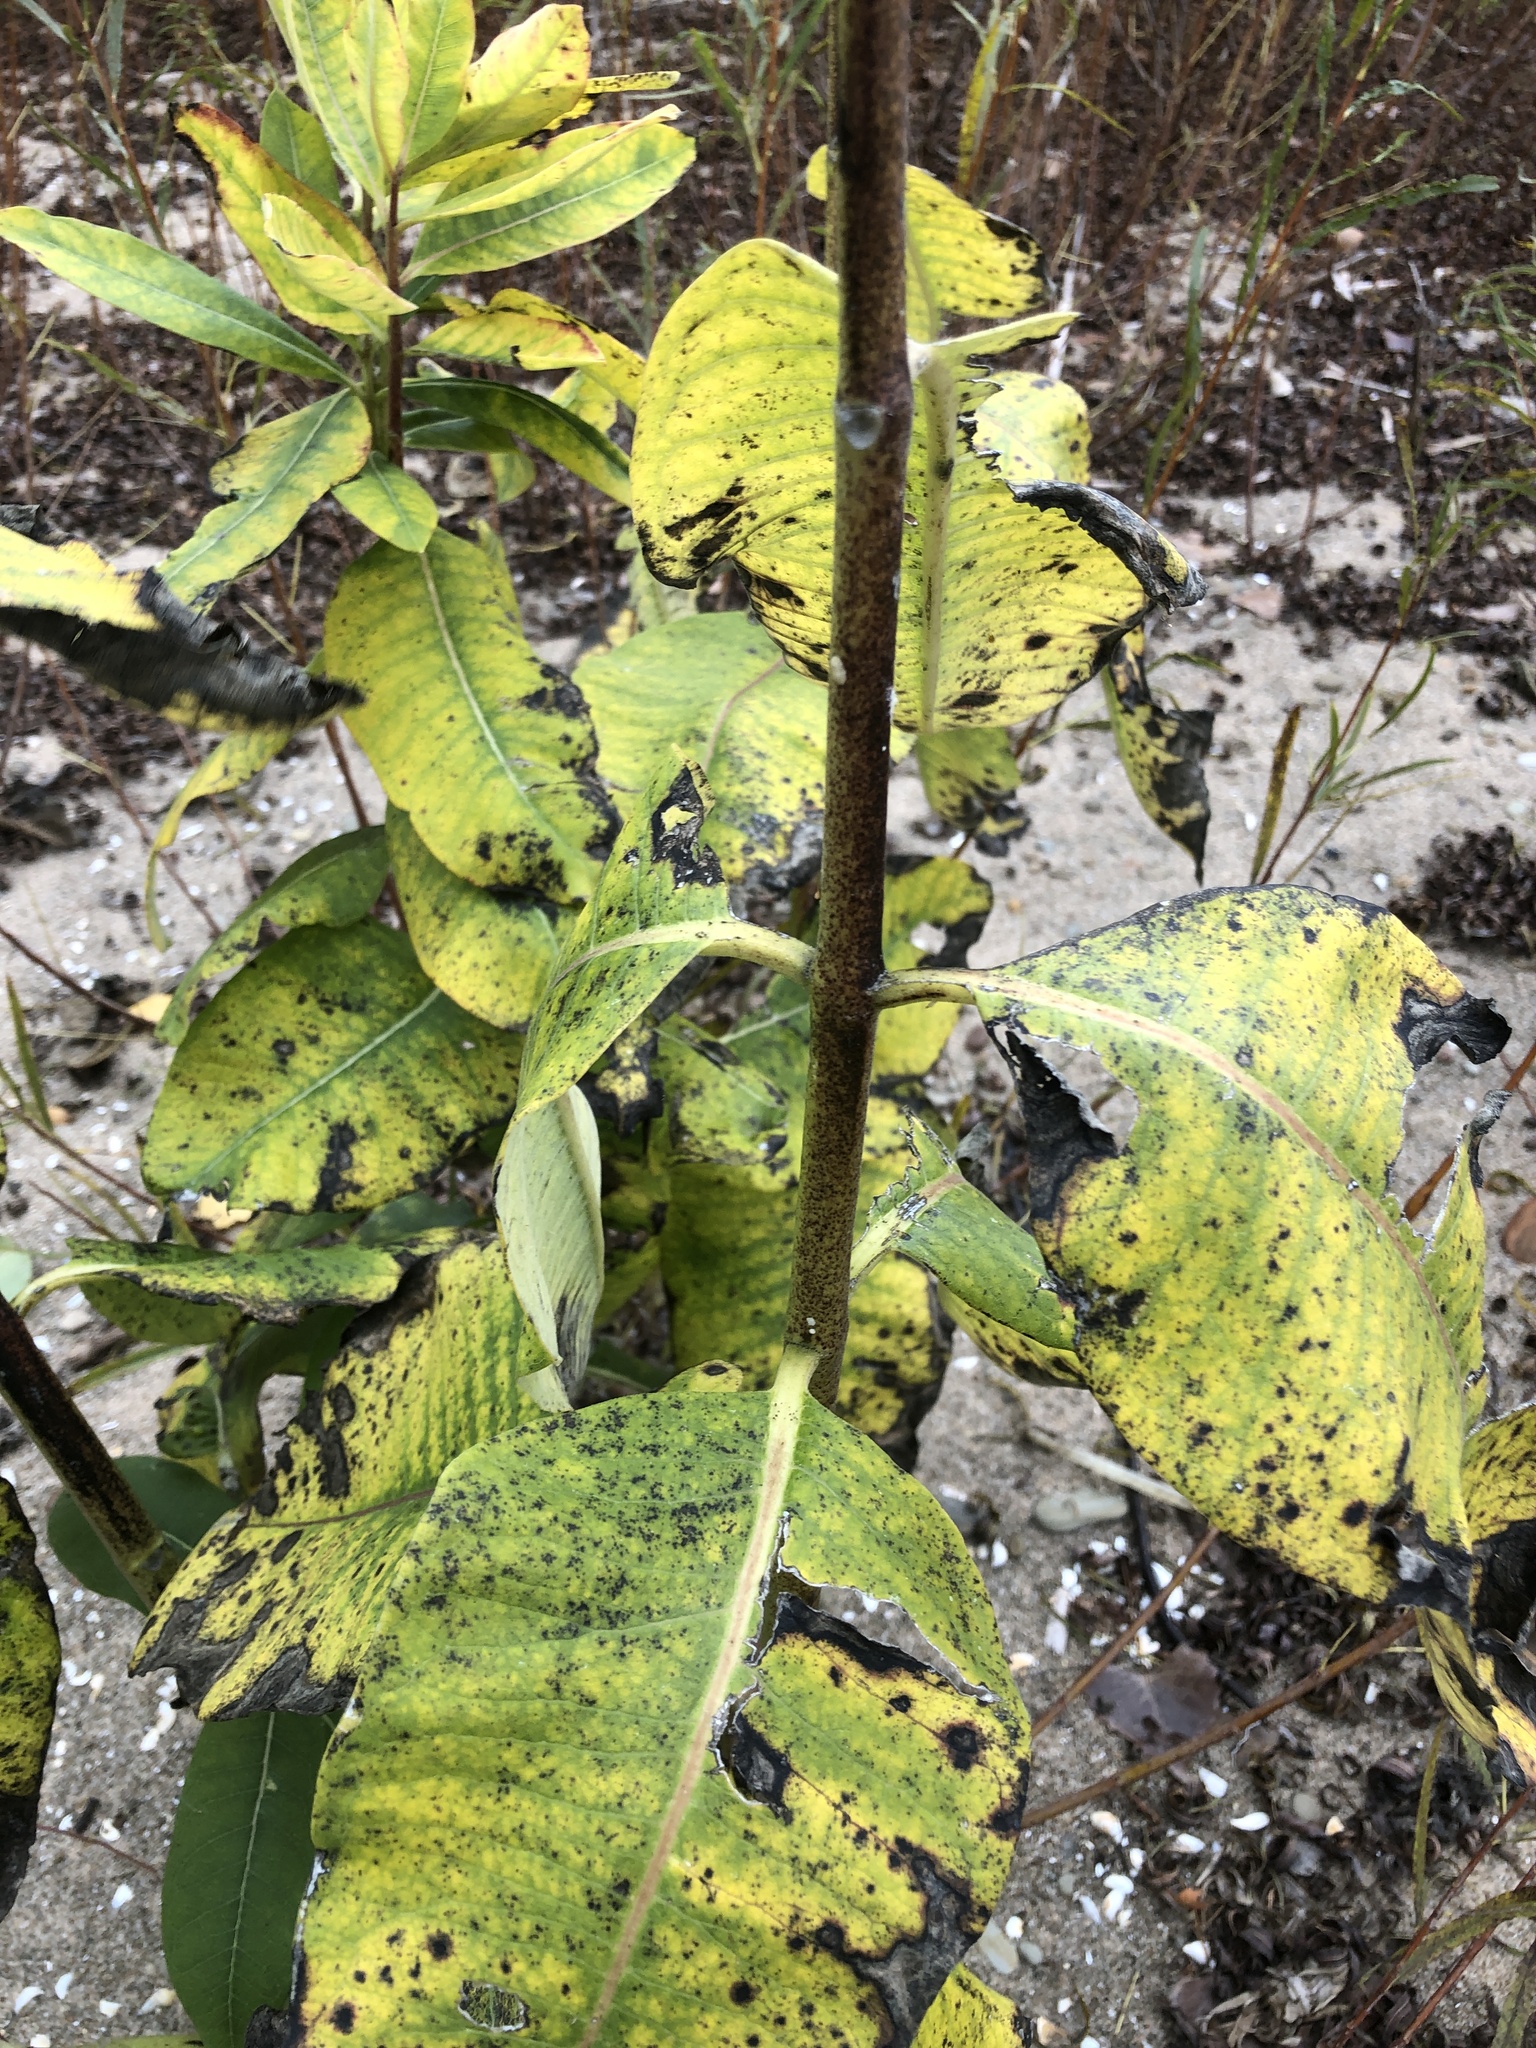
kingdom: Plantae
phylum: Tracheophyta
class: Magnoliopsida
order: Gentianales
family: Apocynaceae
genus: Asclepias
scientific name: Asclepias syriaca
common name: Common milkweed
